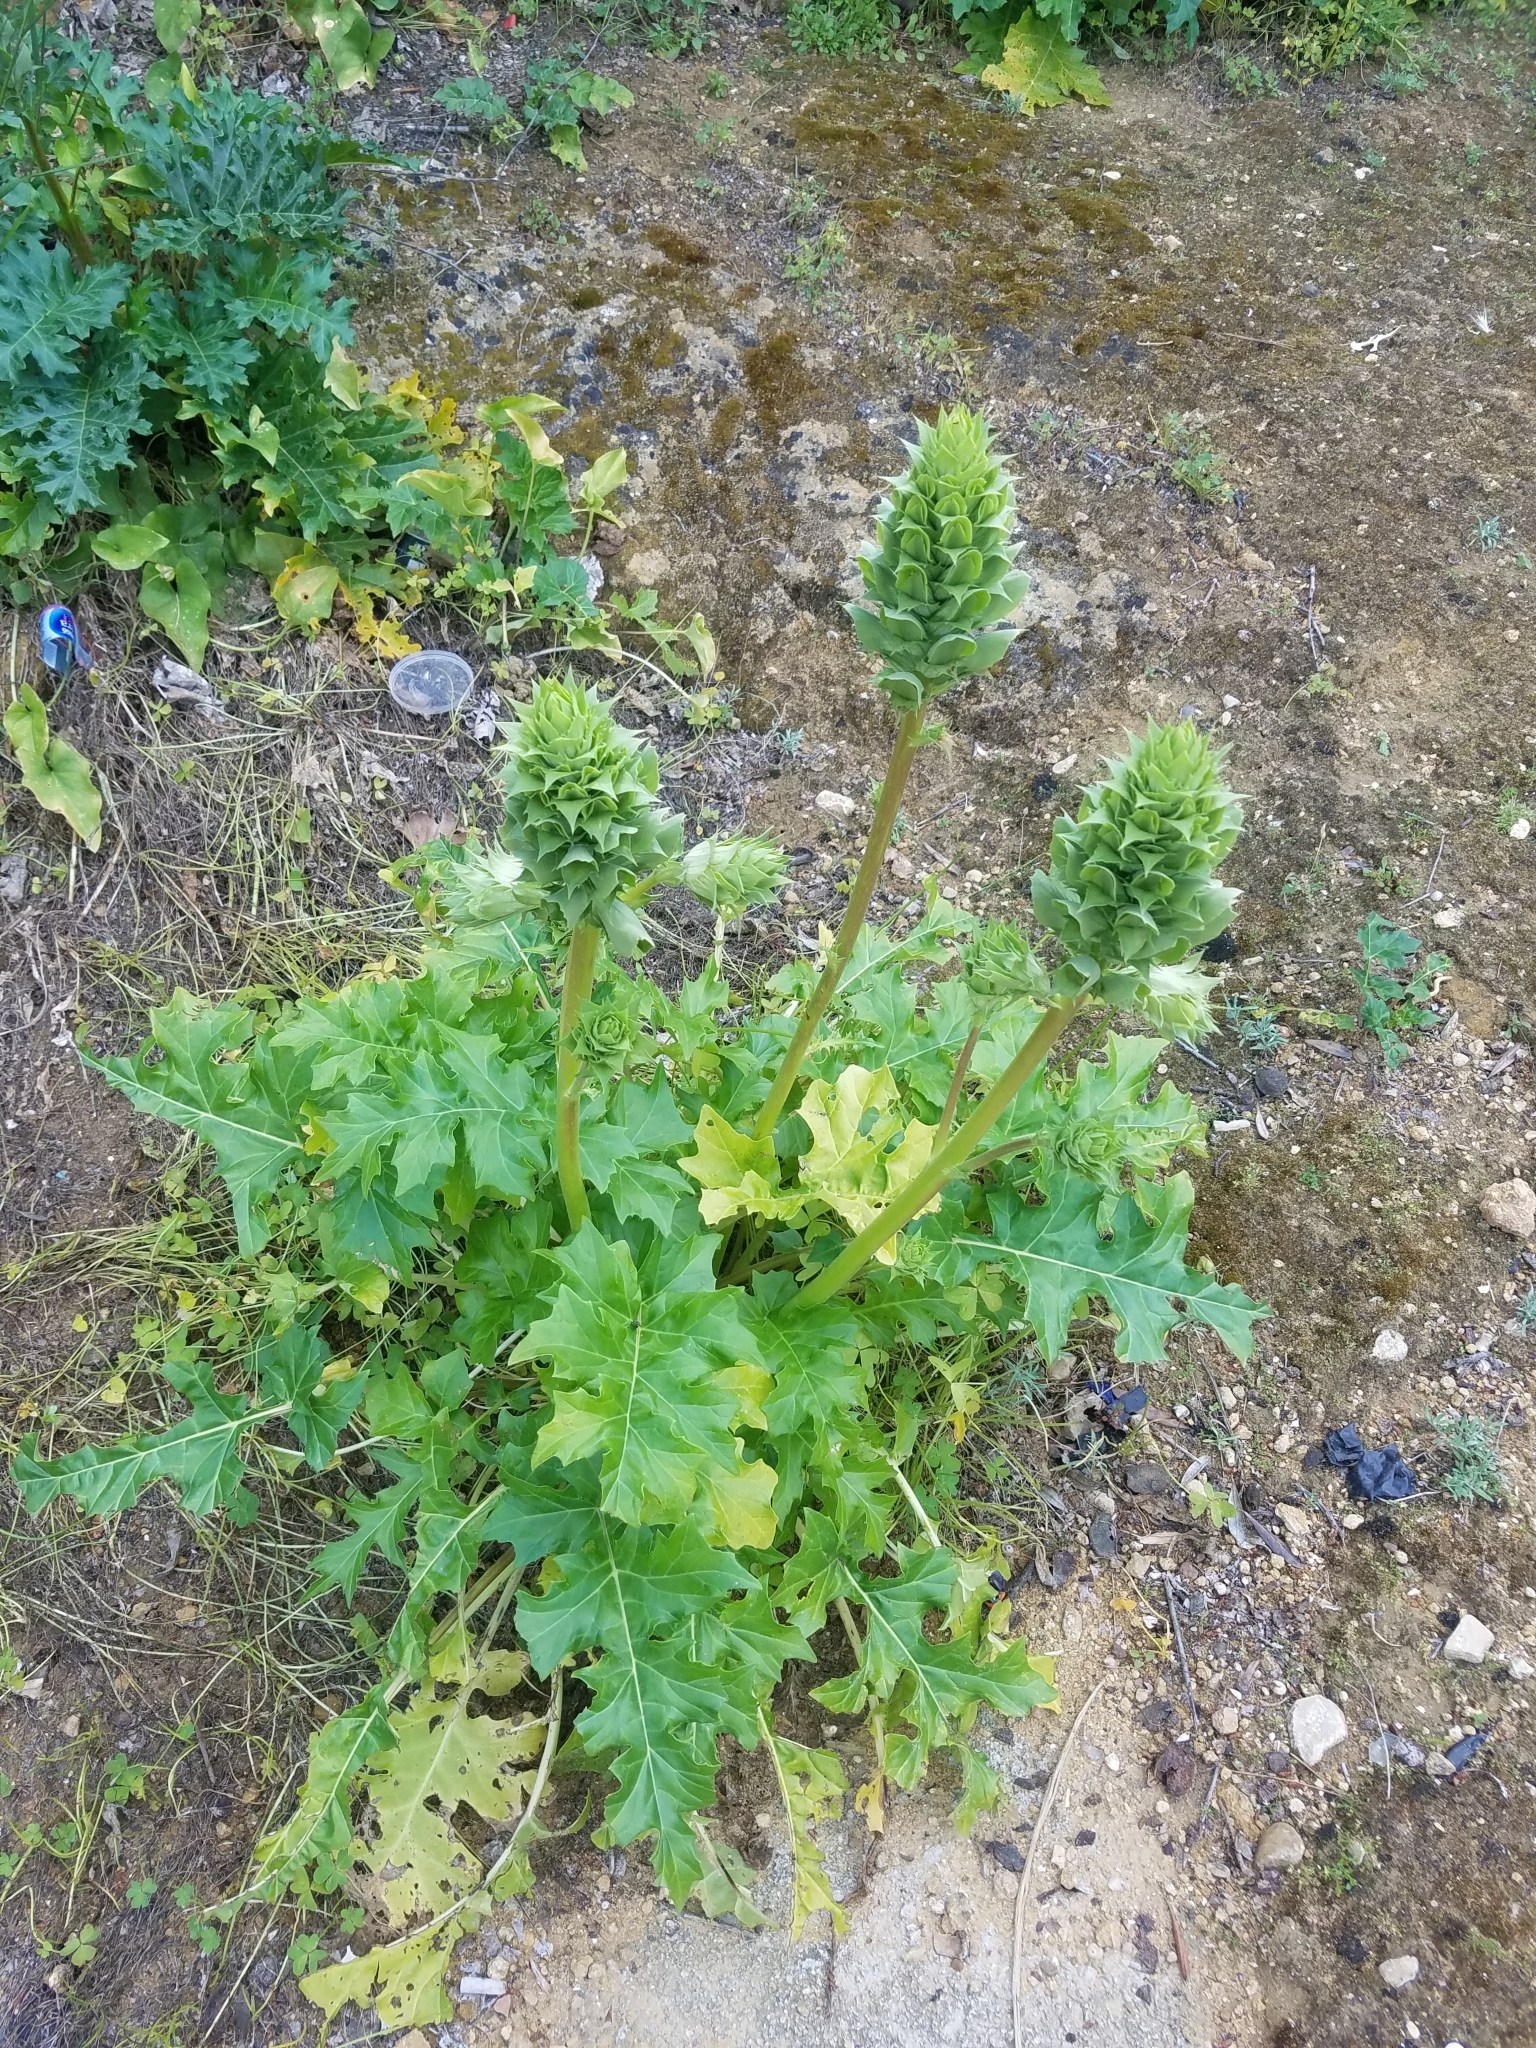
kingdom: Plantae
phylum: Tracheophyta
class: Magnoliopsida
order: Lamiales
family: Acanthaceae
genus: Acanthus
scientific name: Acanthus mollis
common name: Bear's-breech
